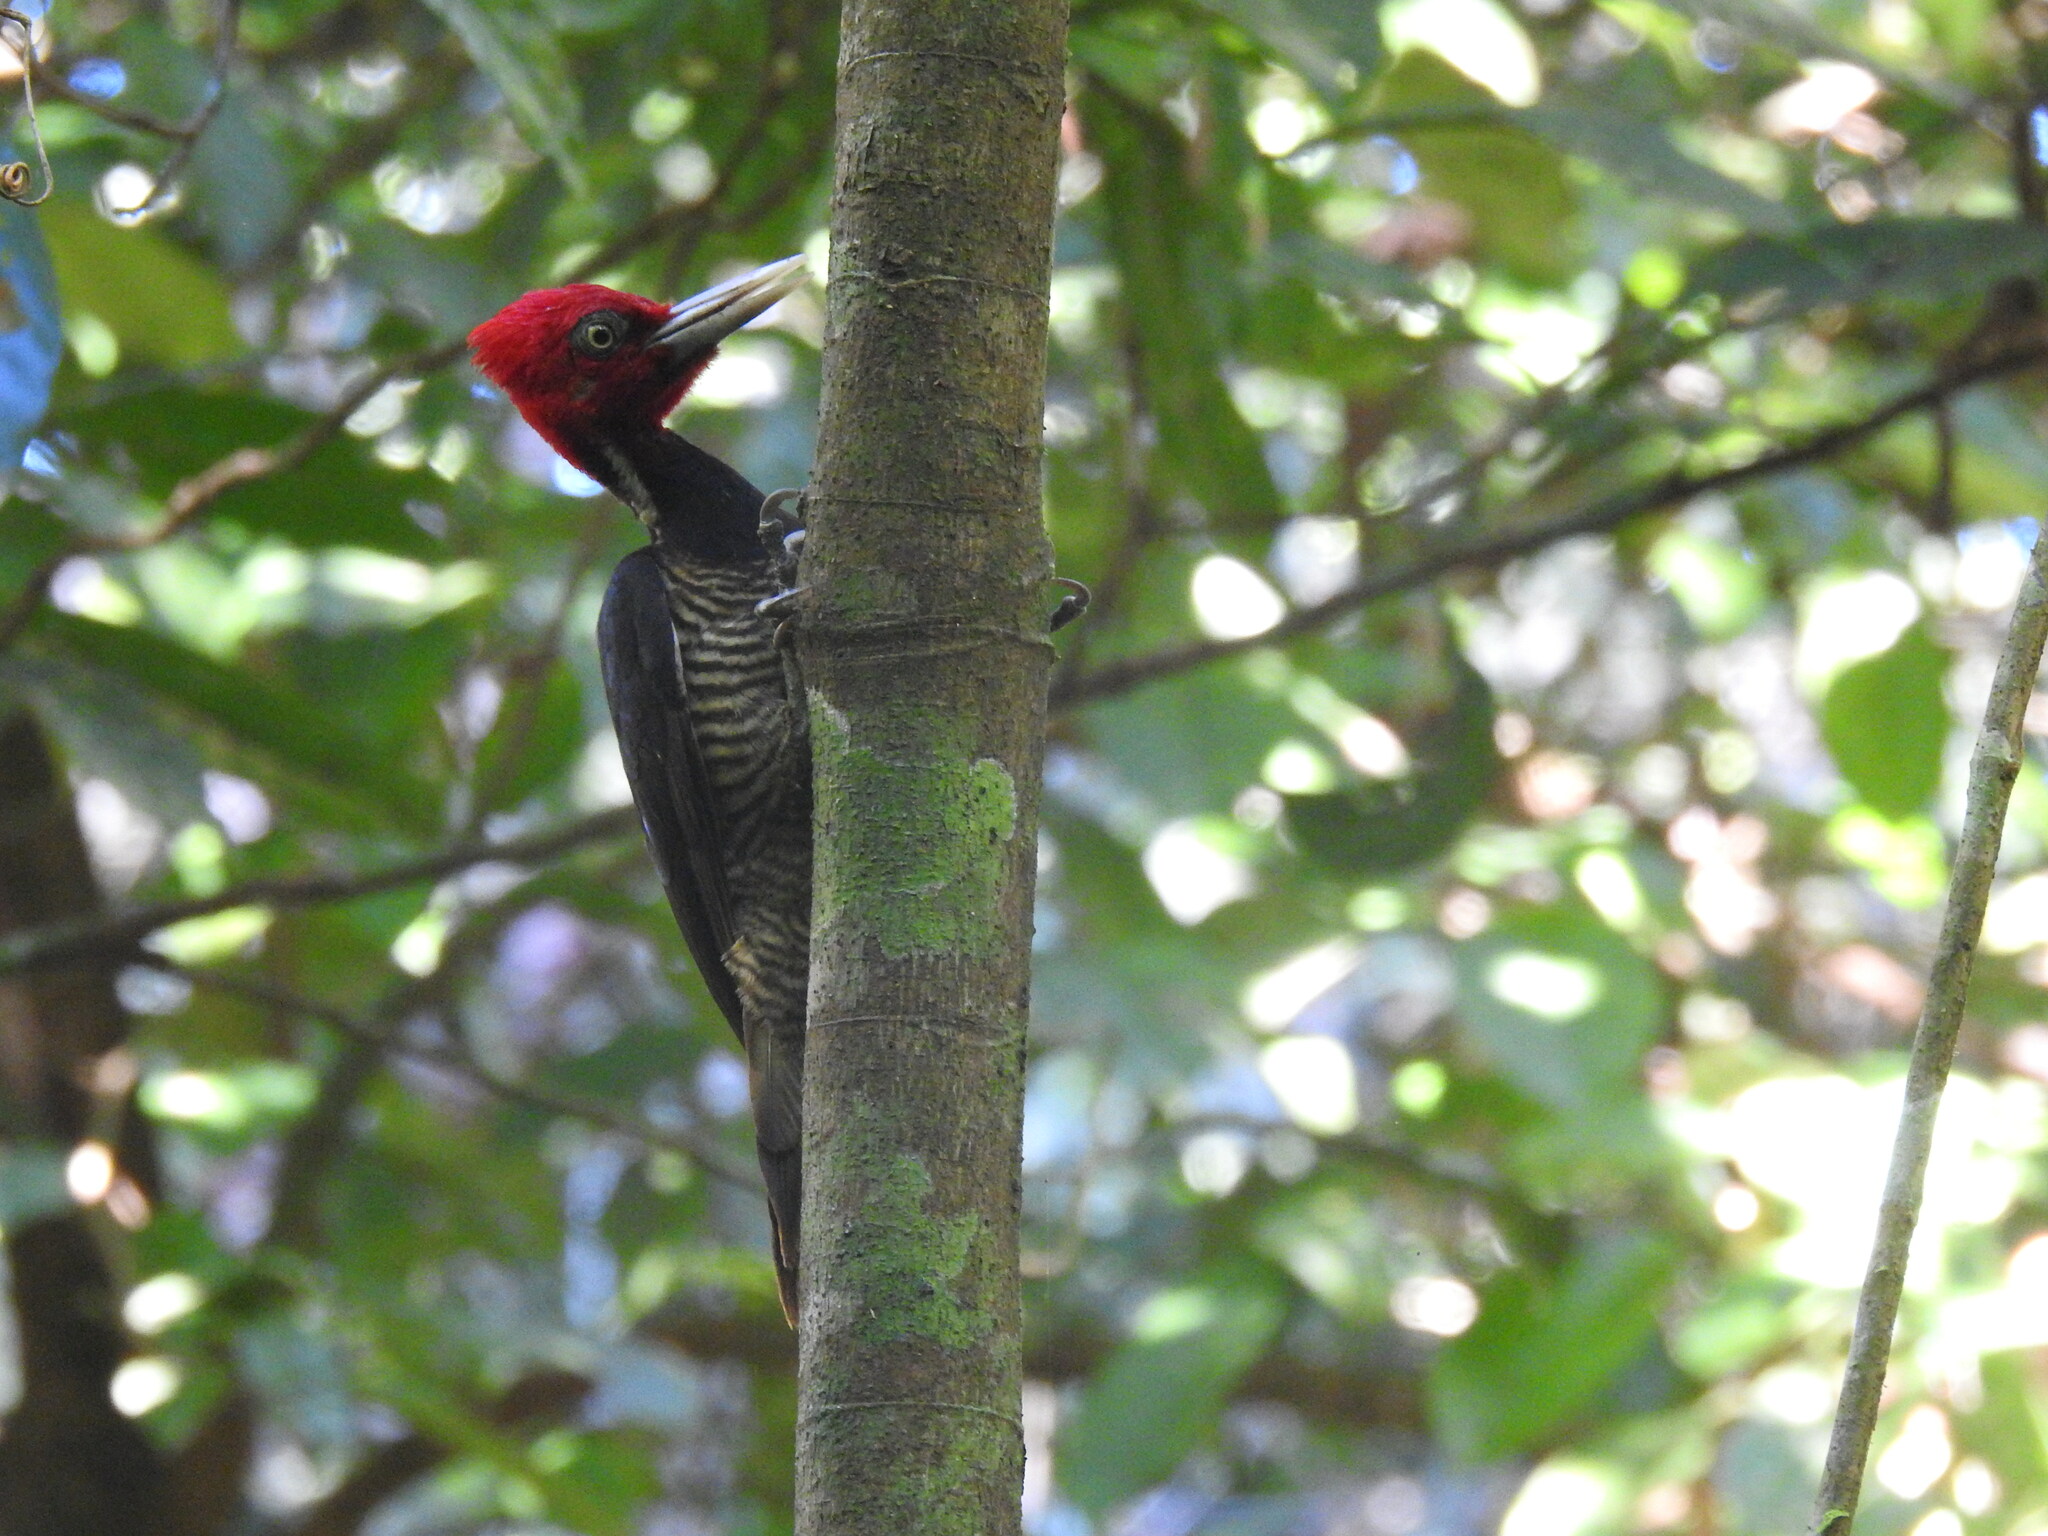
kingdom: Animalia
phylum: Chordata
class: Aves
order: Piciformes
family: Picidae
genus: Campephilus
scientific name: Campephilus guatemalensis
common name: Pale-billed woodpecker
